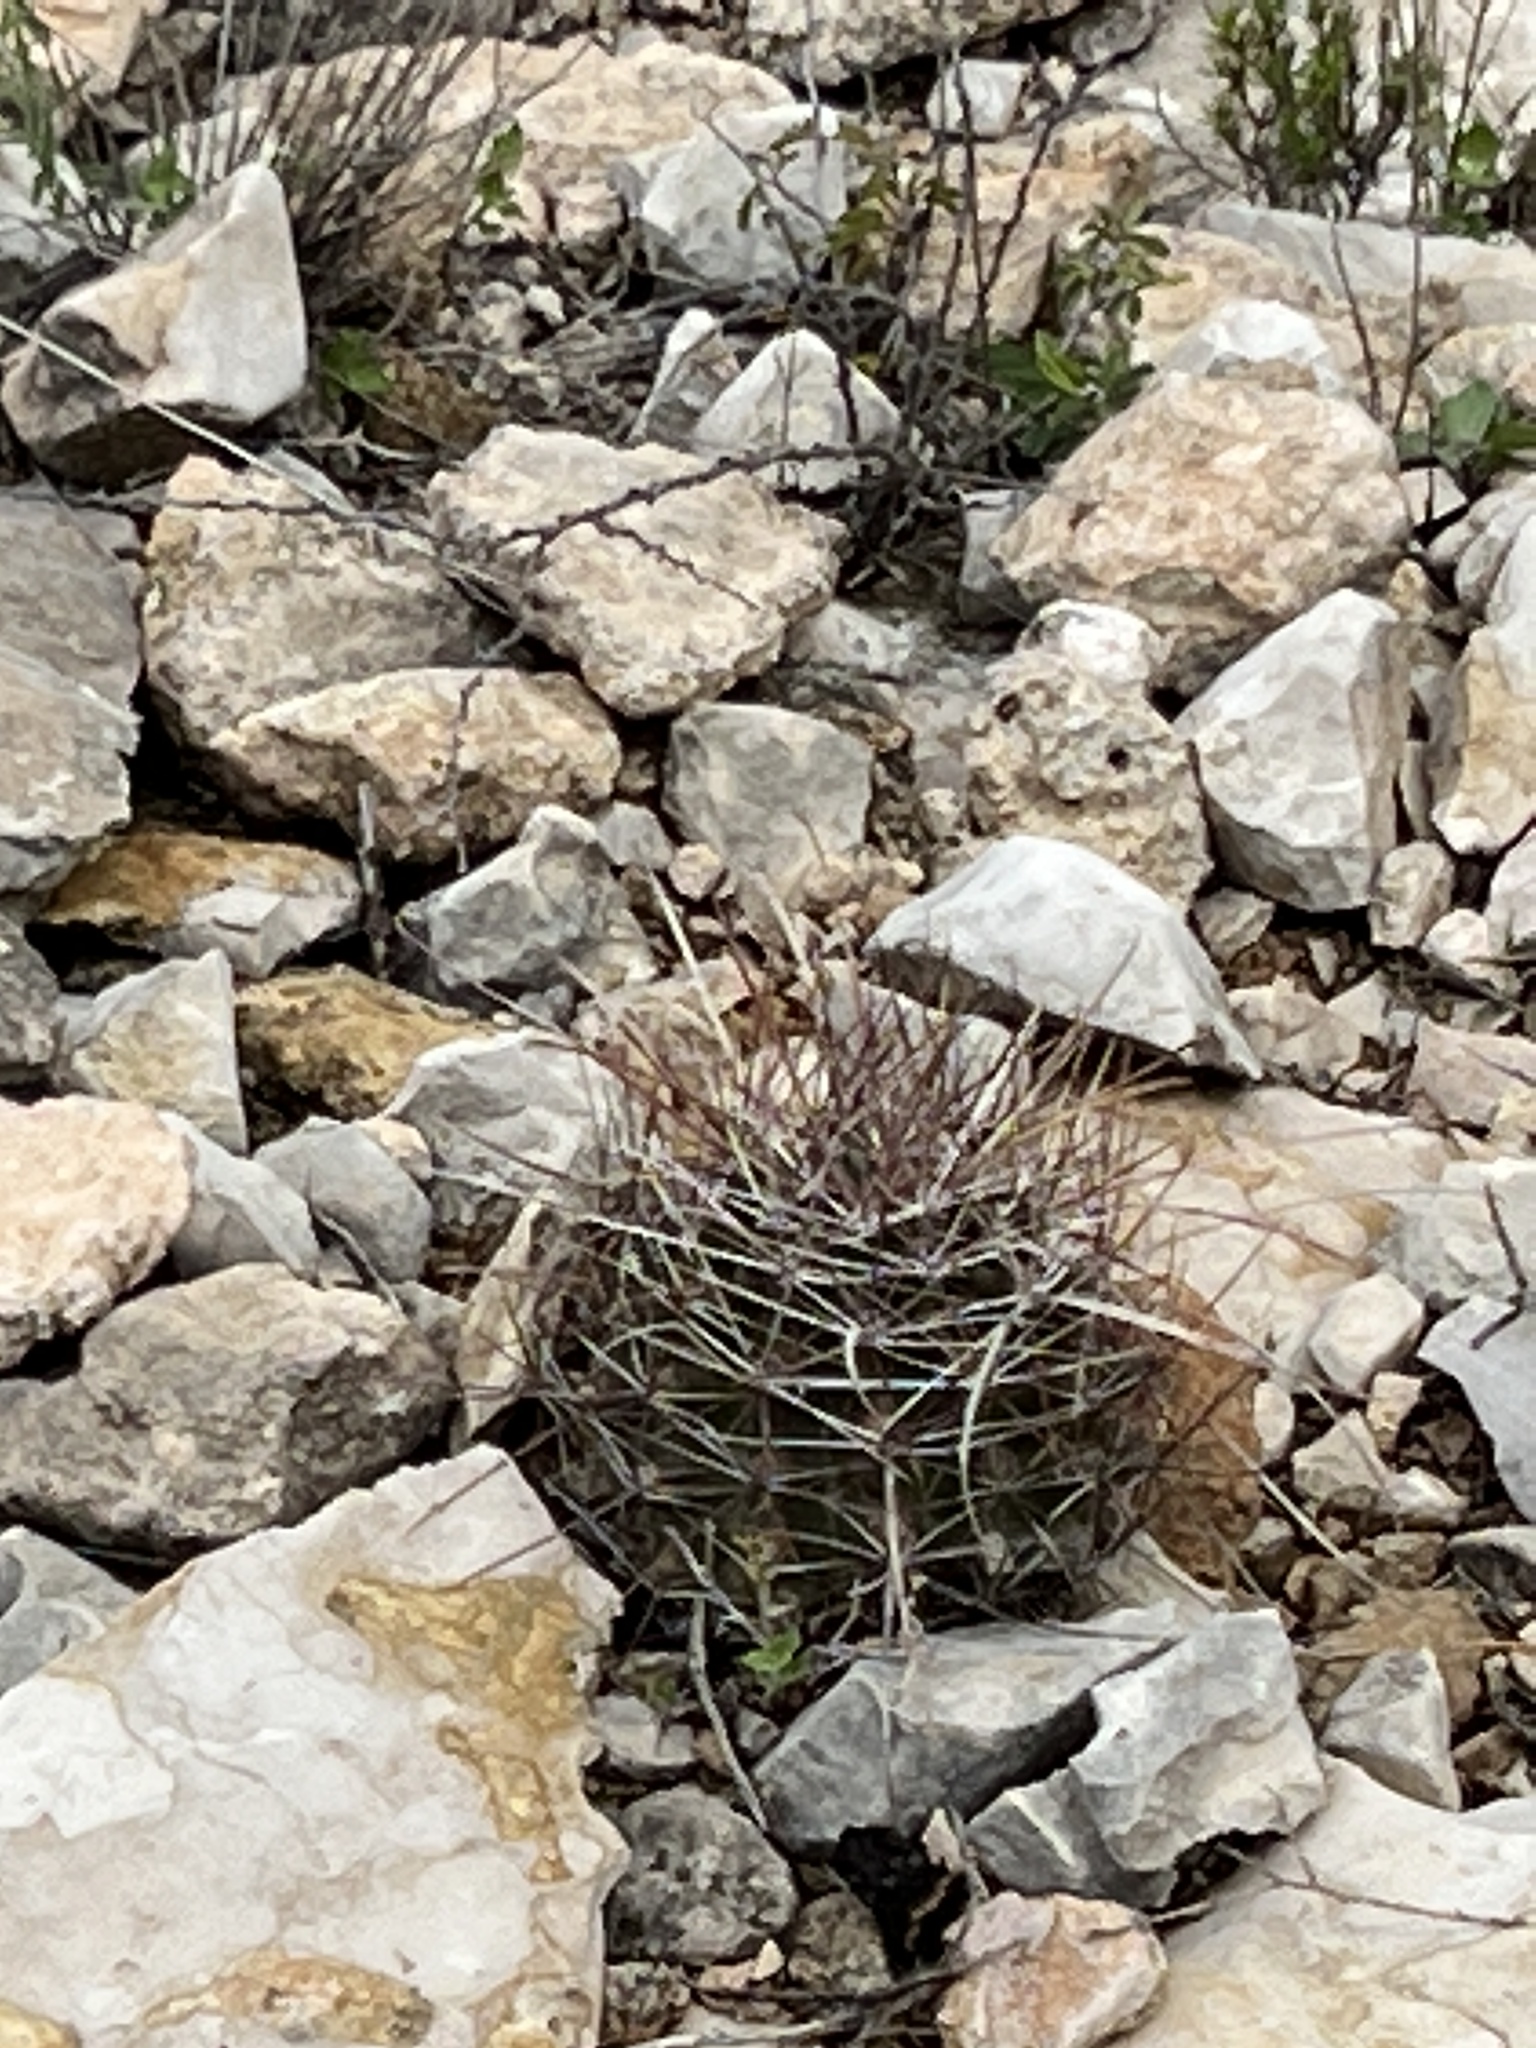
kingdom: Plantae
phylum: Tracheophyta
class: Magnoliopsida
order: Caryophyllales
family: Cactaceae
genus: Bisnaga
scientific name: Bisnaga hamatacantha
